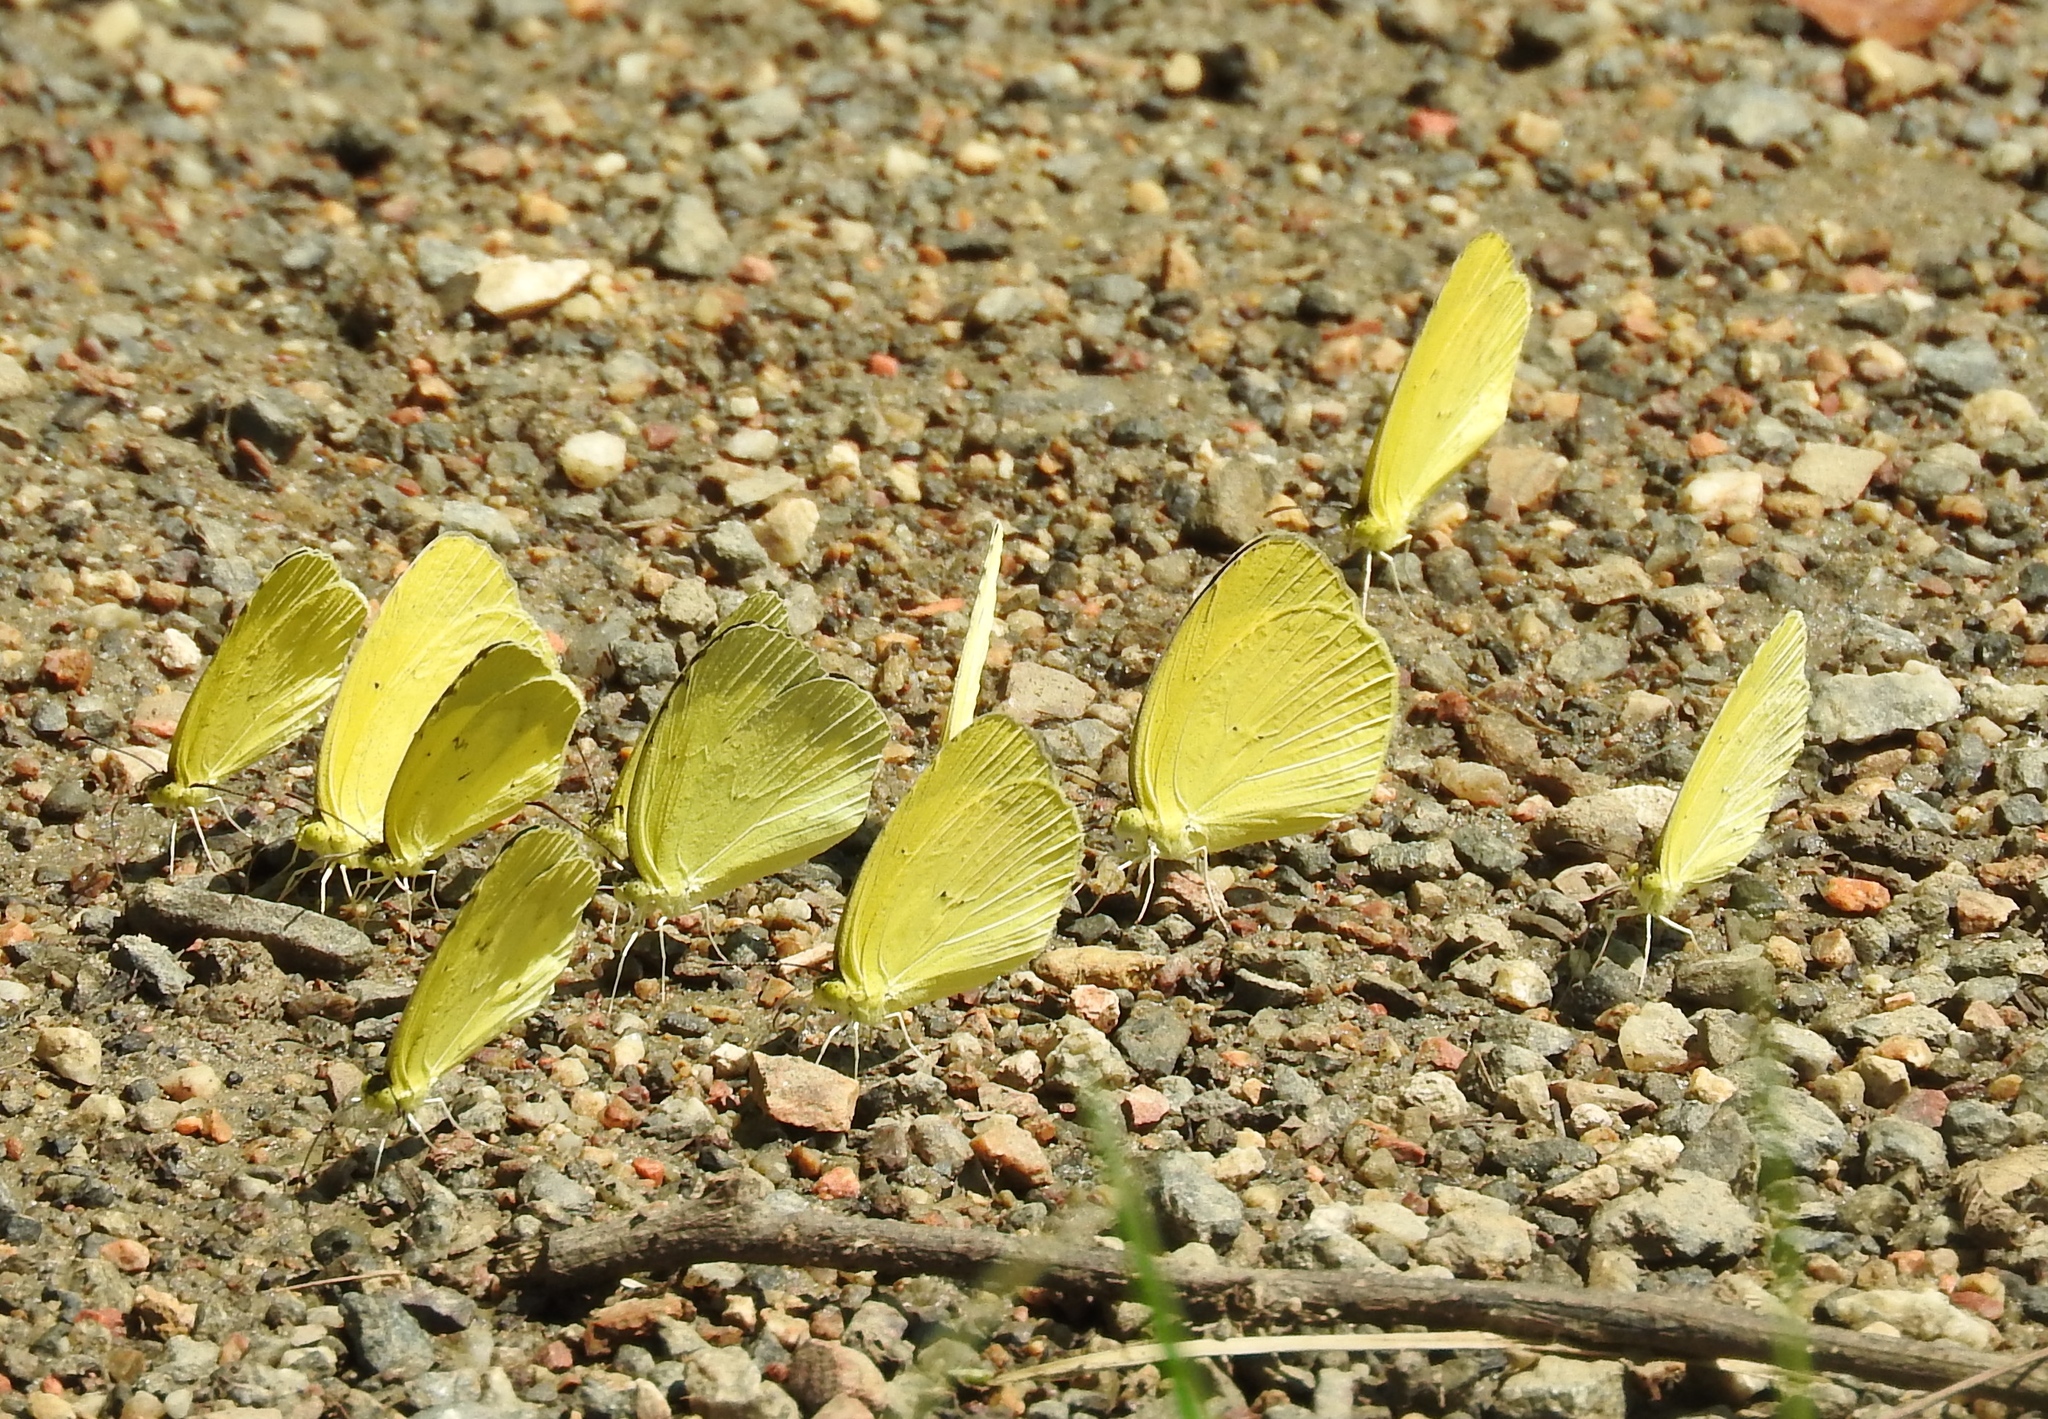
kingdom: Animalia
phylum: Arthropoda
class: Insecta
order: Lepidoptera
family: Pieridae
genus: Eurema
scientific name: Eurema
